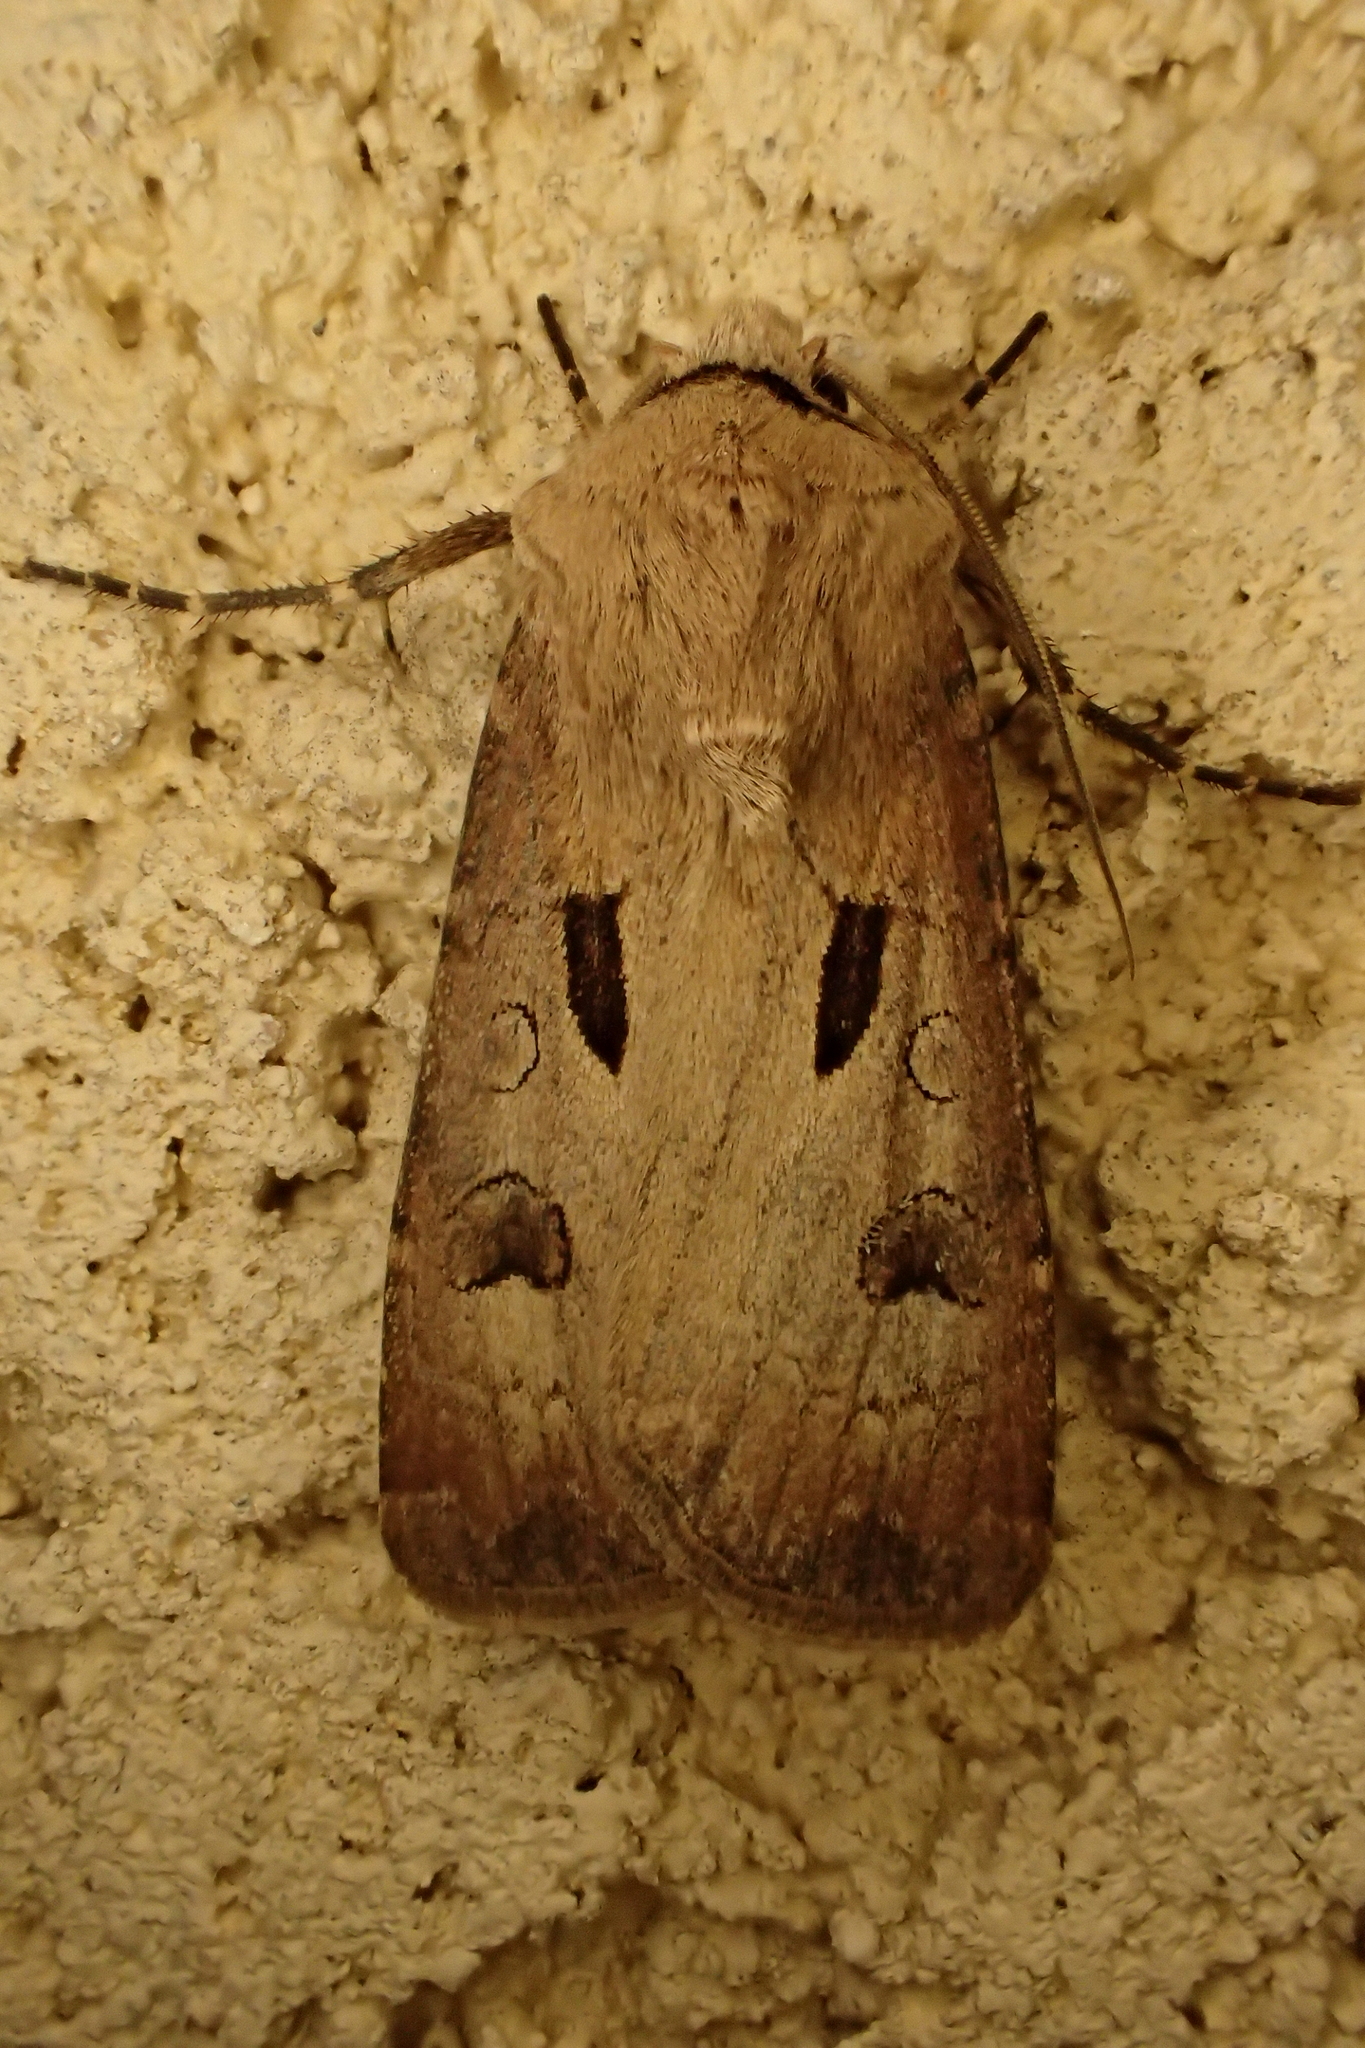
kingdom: Animalia
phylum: Arthropoda
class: Insecta
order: Lepidoptera
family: Noctuidae
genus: Agrotis
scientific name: Agrotis exclamationis
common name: Heart and dart
